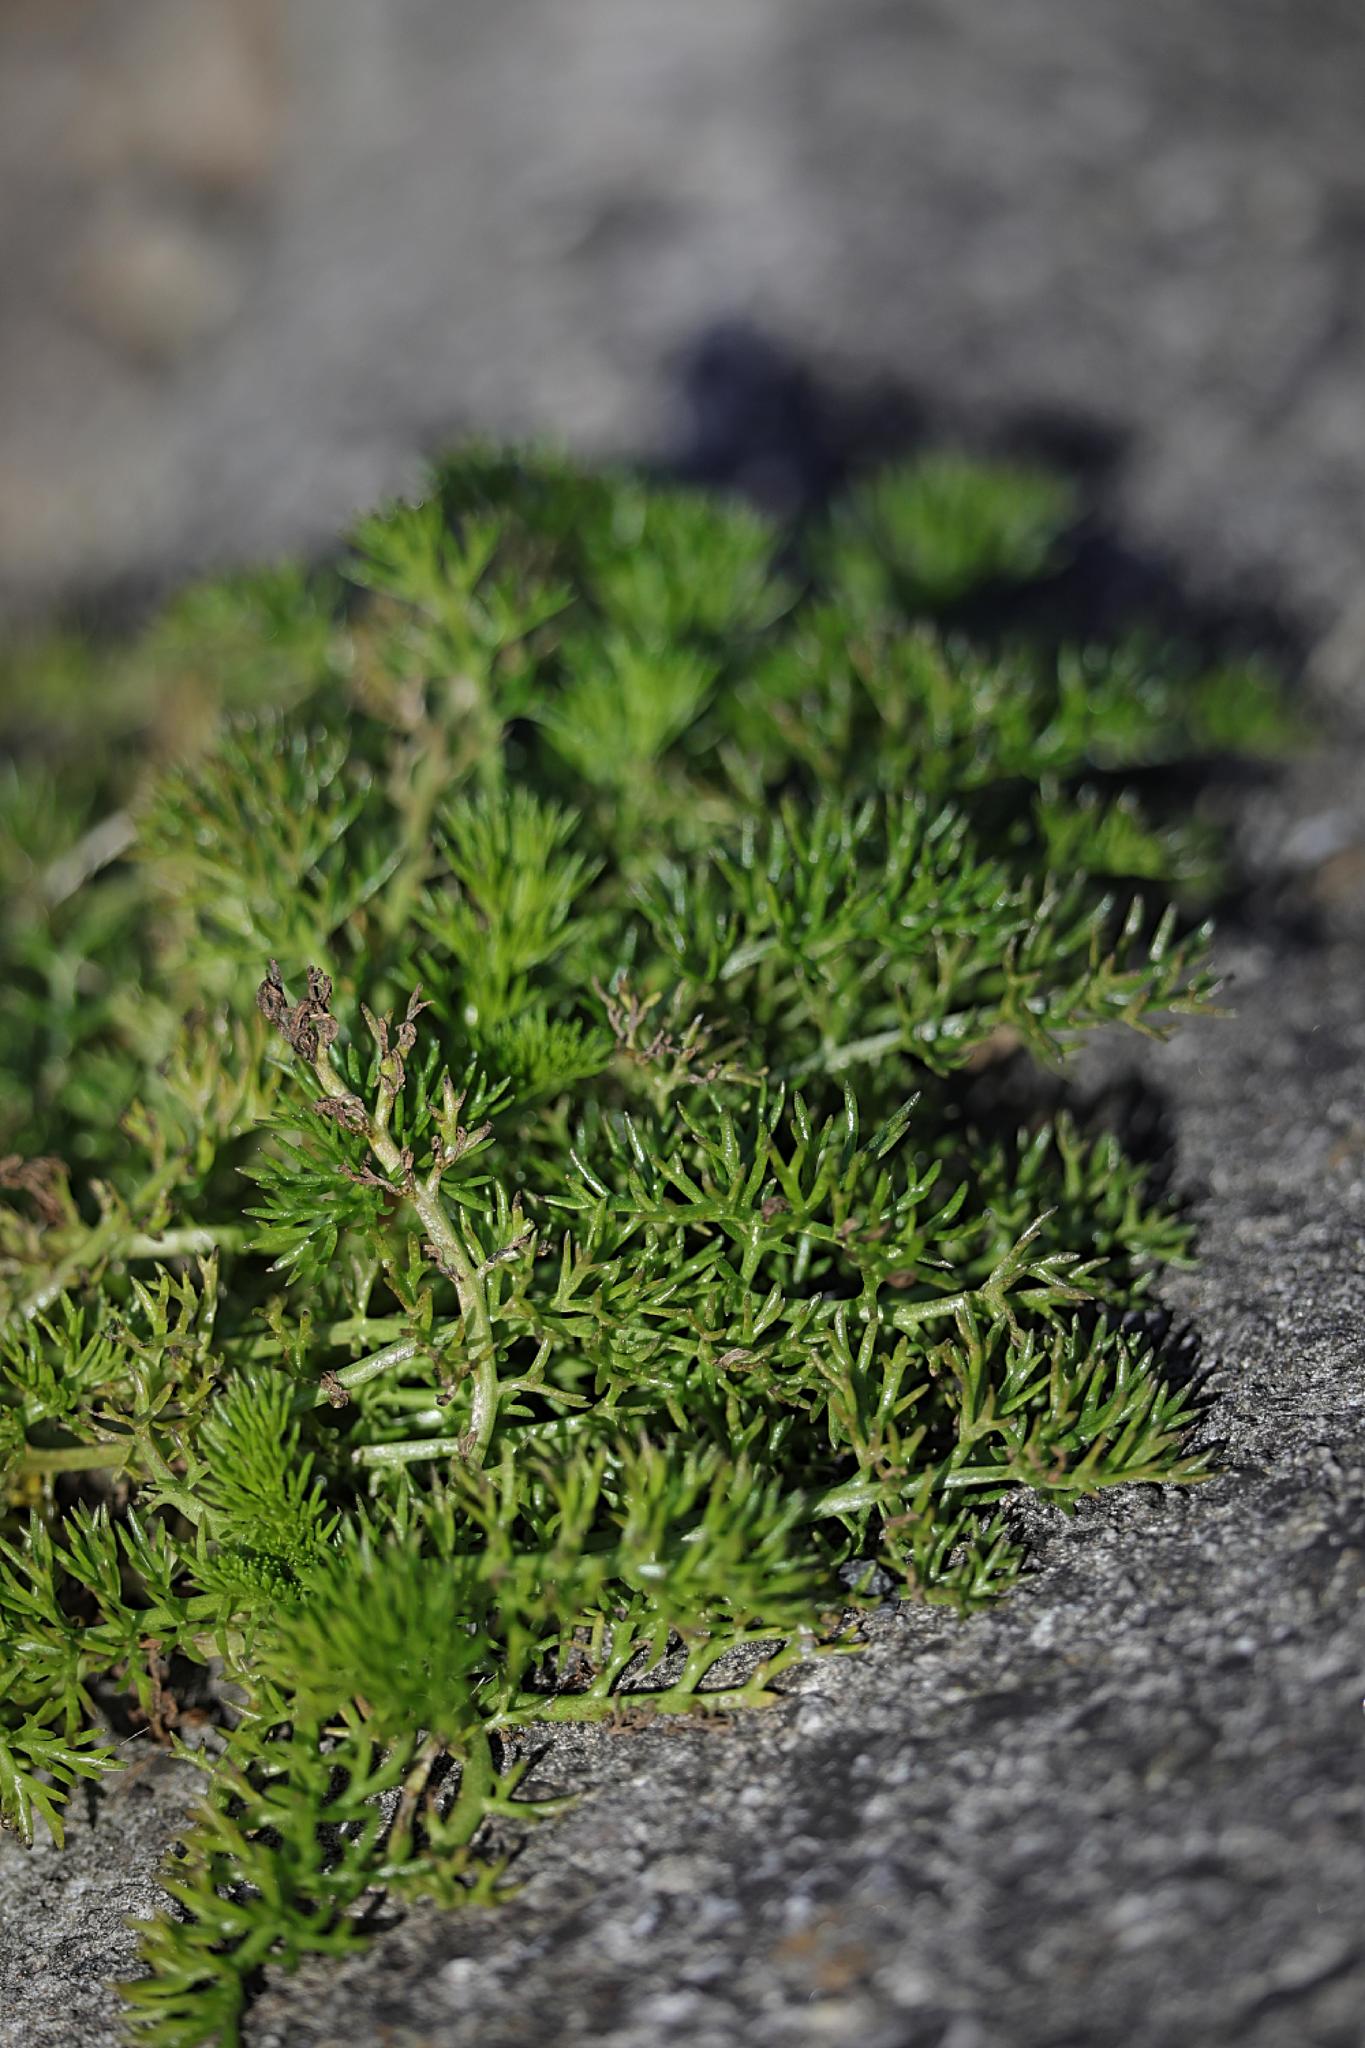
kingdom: Plantae
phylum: Tracheophyta
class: Magnoliopsida
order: Asterales
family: Asteraceae
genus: Tripleurospermum
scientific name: Tripleurospermum maritimum
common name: Sea mayweed
